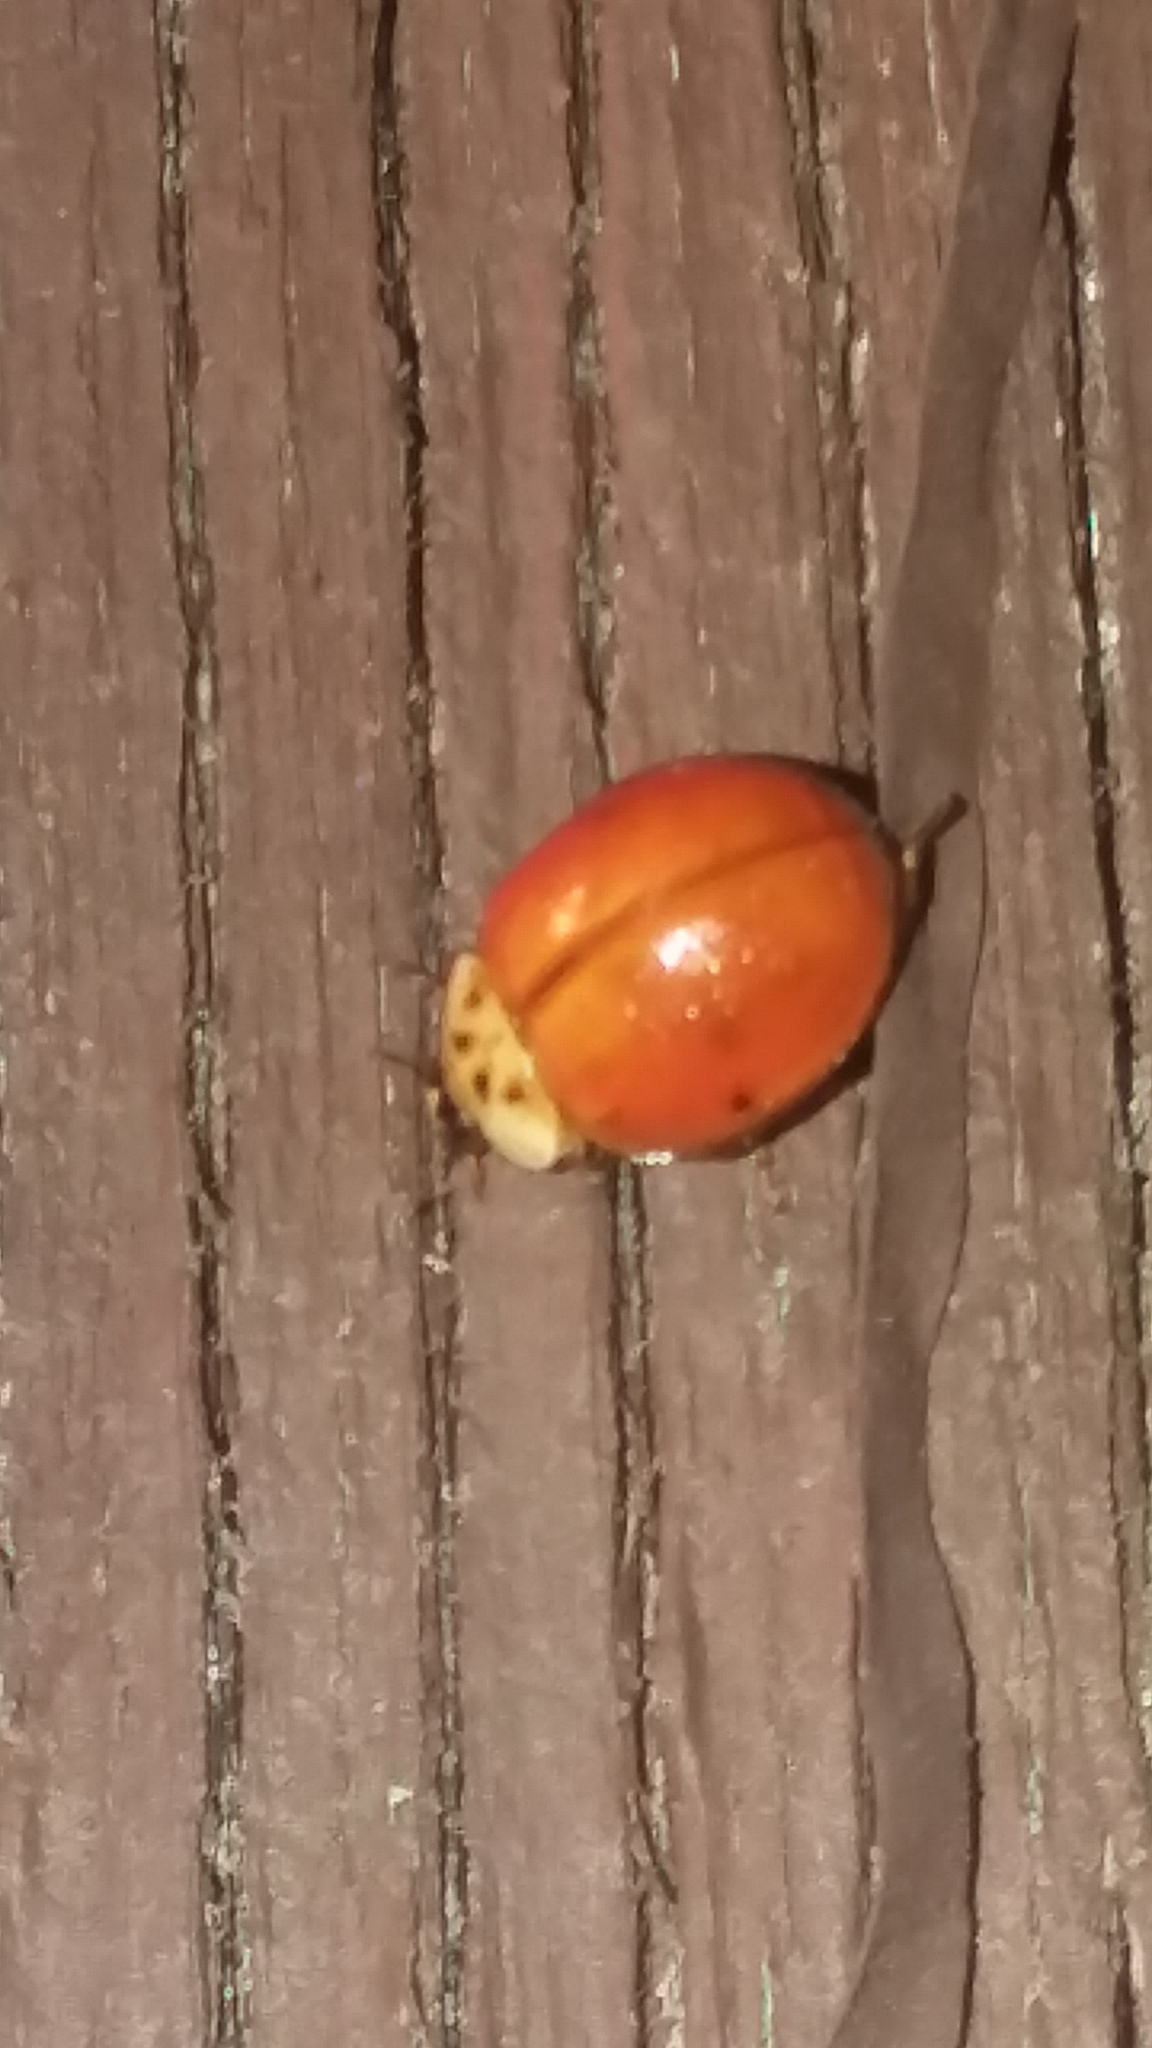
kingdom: Animalia
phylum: Arthropoda
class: Insecta
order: Coleoptera
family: Coccinellidae
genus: Harmonia
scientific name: Harmonia axyridis
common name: Harlequin ladybird
